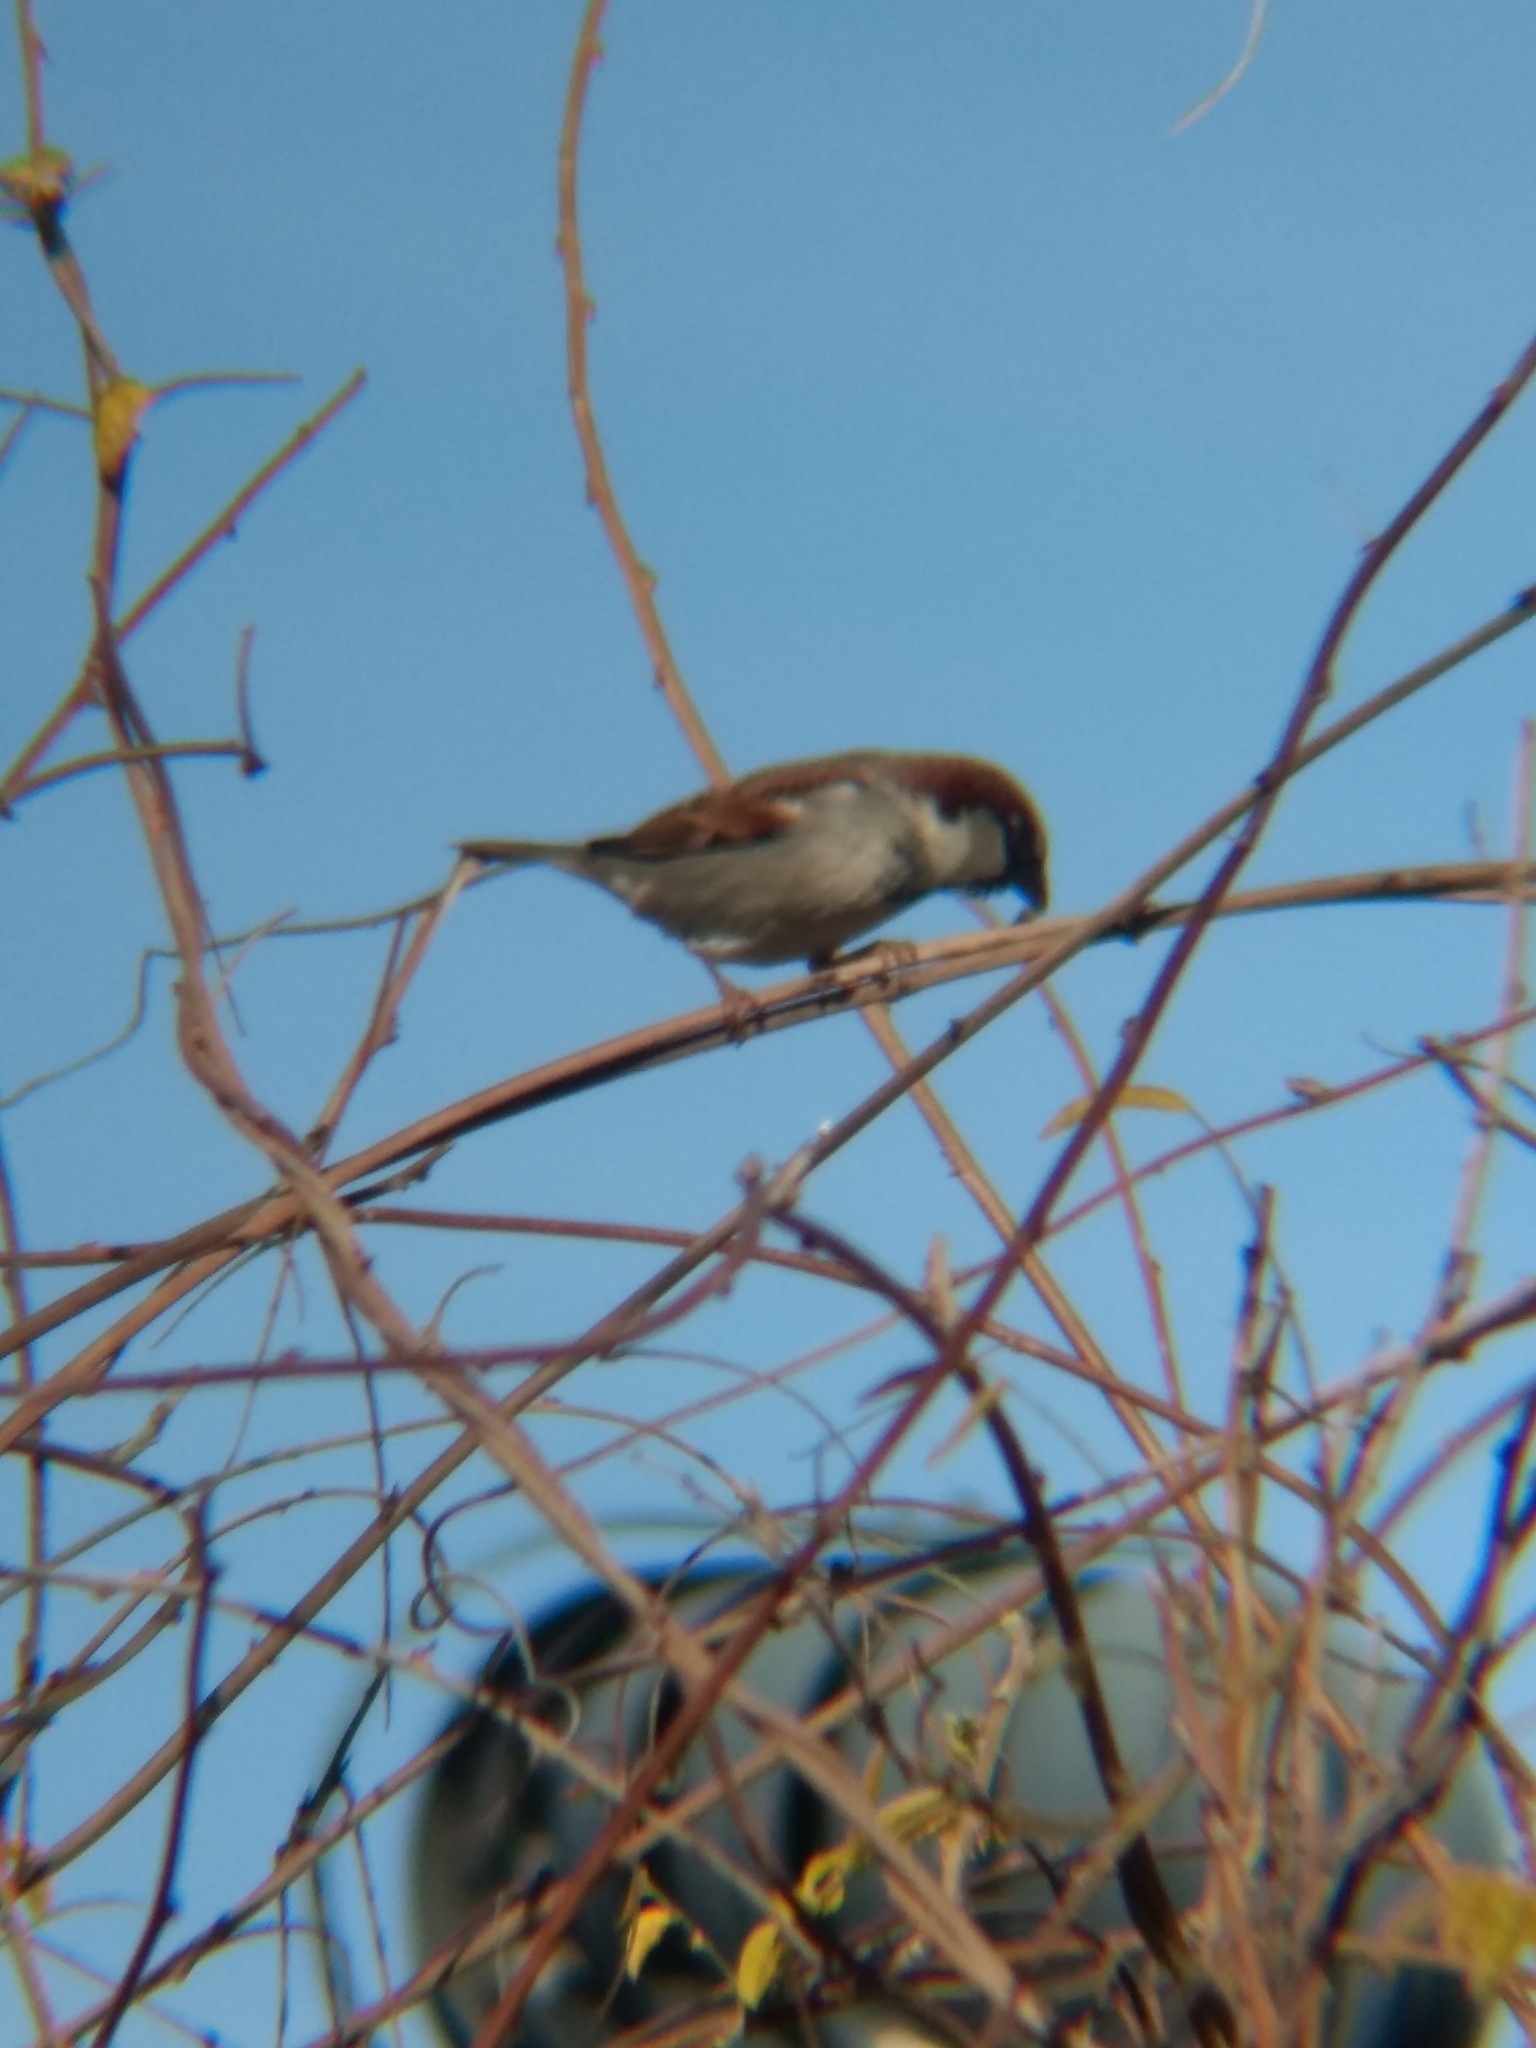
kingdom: Animalia
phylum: Chordata
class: Aves
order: Passeriformes
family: Passeridae
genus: Passer
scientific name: Passer domesticus
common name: House sparrow
